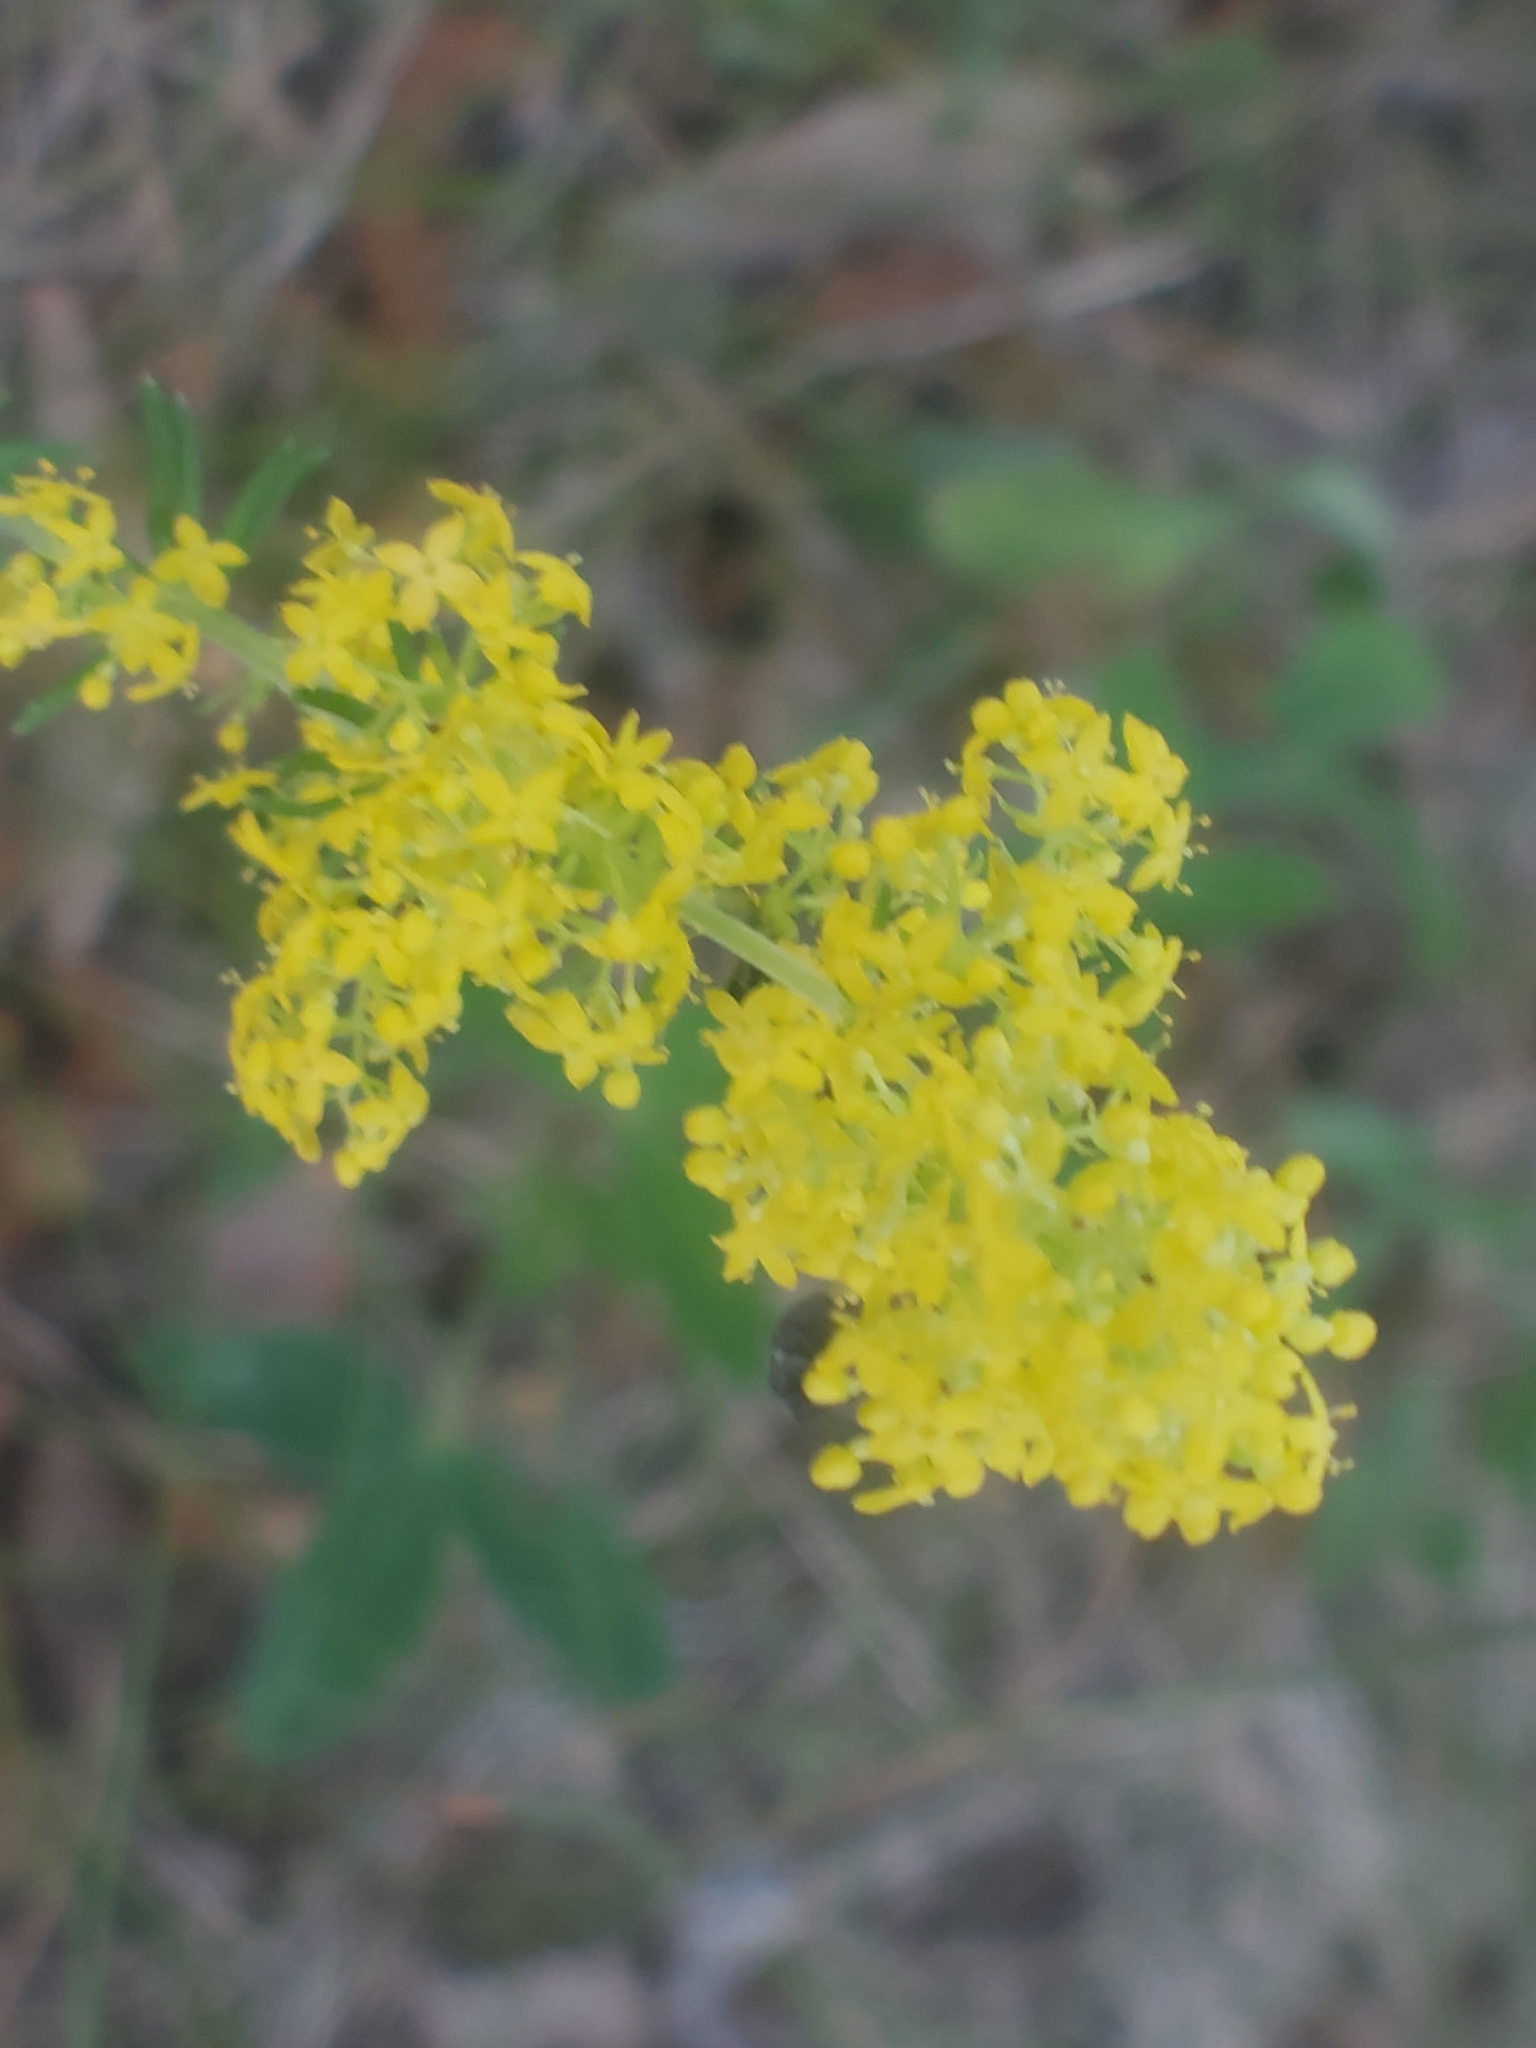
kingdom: Plantae
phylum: Tracheophyta
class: Magnoliopsida
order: Gentianales
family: Rubiaceae
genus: Galium
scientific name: Galium verum
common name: Lady's bedstraw
